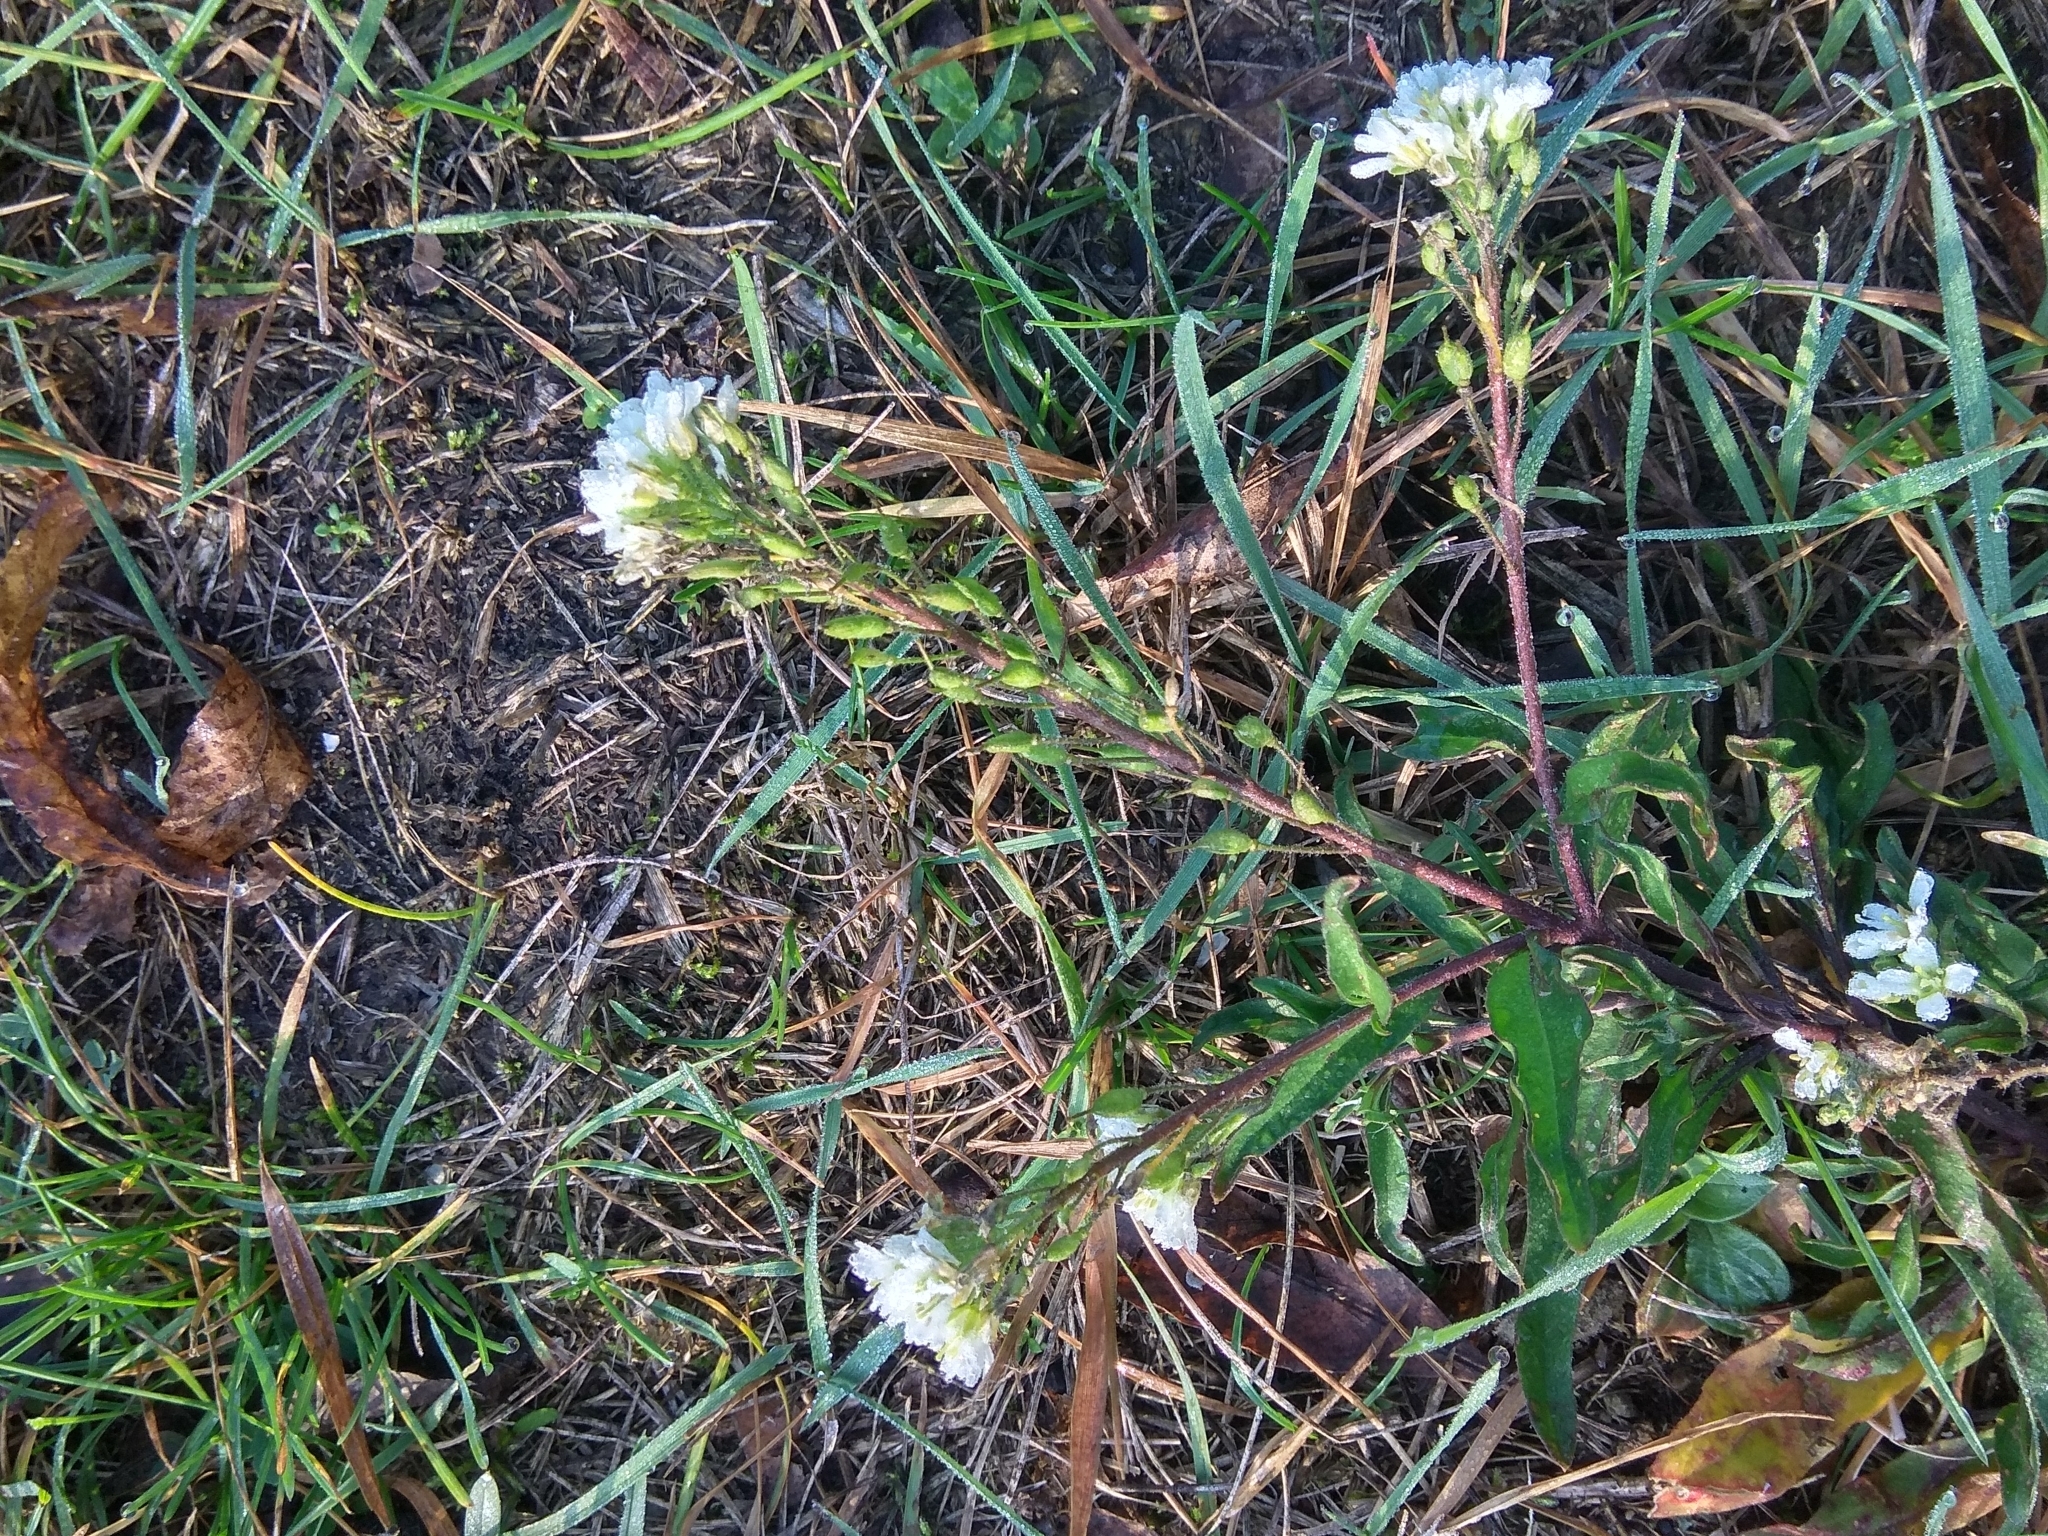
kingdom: Plantae
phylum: Tracheophyta
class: Magnoliopsida
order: Brassicales
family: Brassicaceae
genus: Berteroa
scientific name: Berteroa incana
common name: Hoary alison
